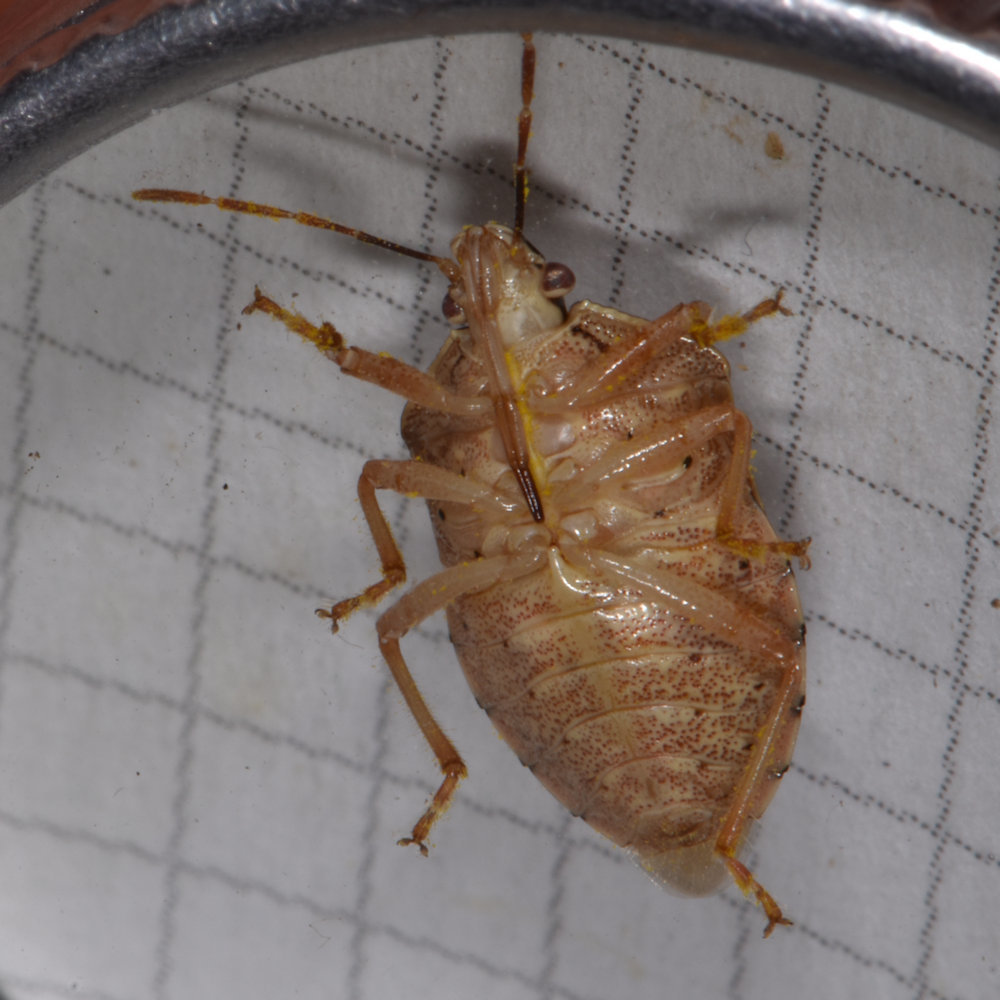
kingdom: Animalia
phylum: Arthropoda
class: Insecta
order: Hemiptera
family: Pentatomidae
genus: Podisus
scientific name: Podisus placidus
